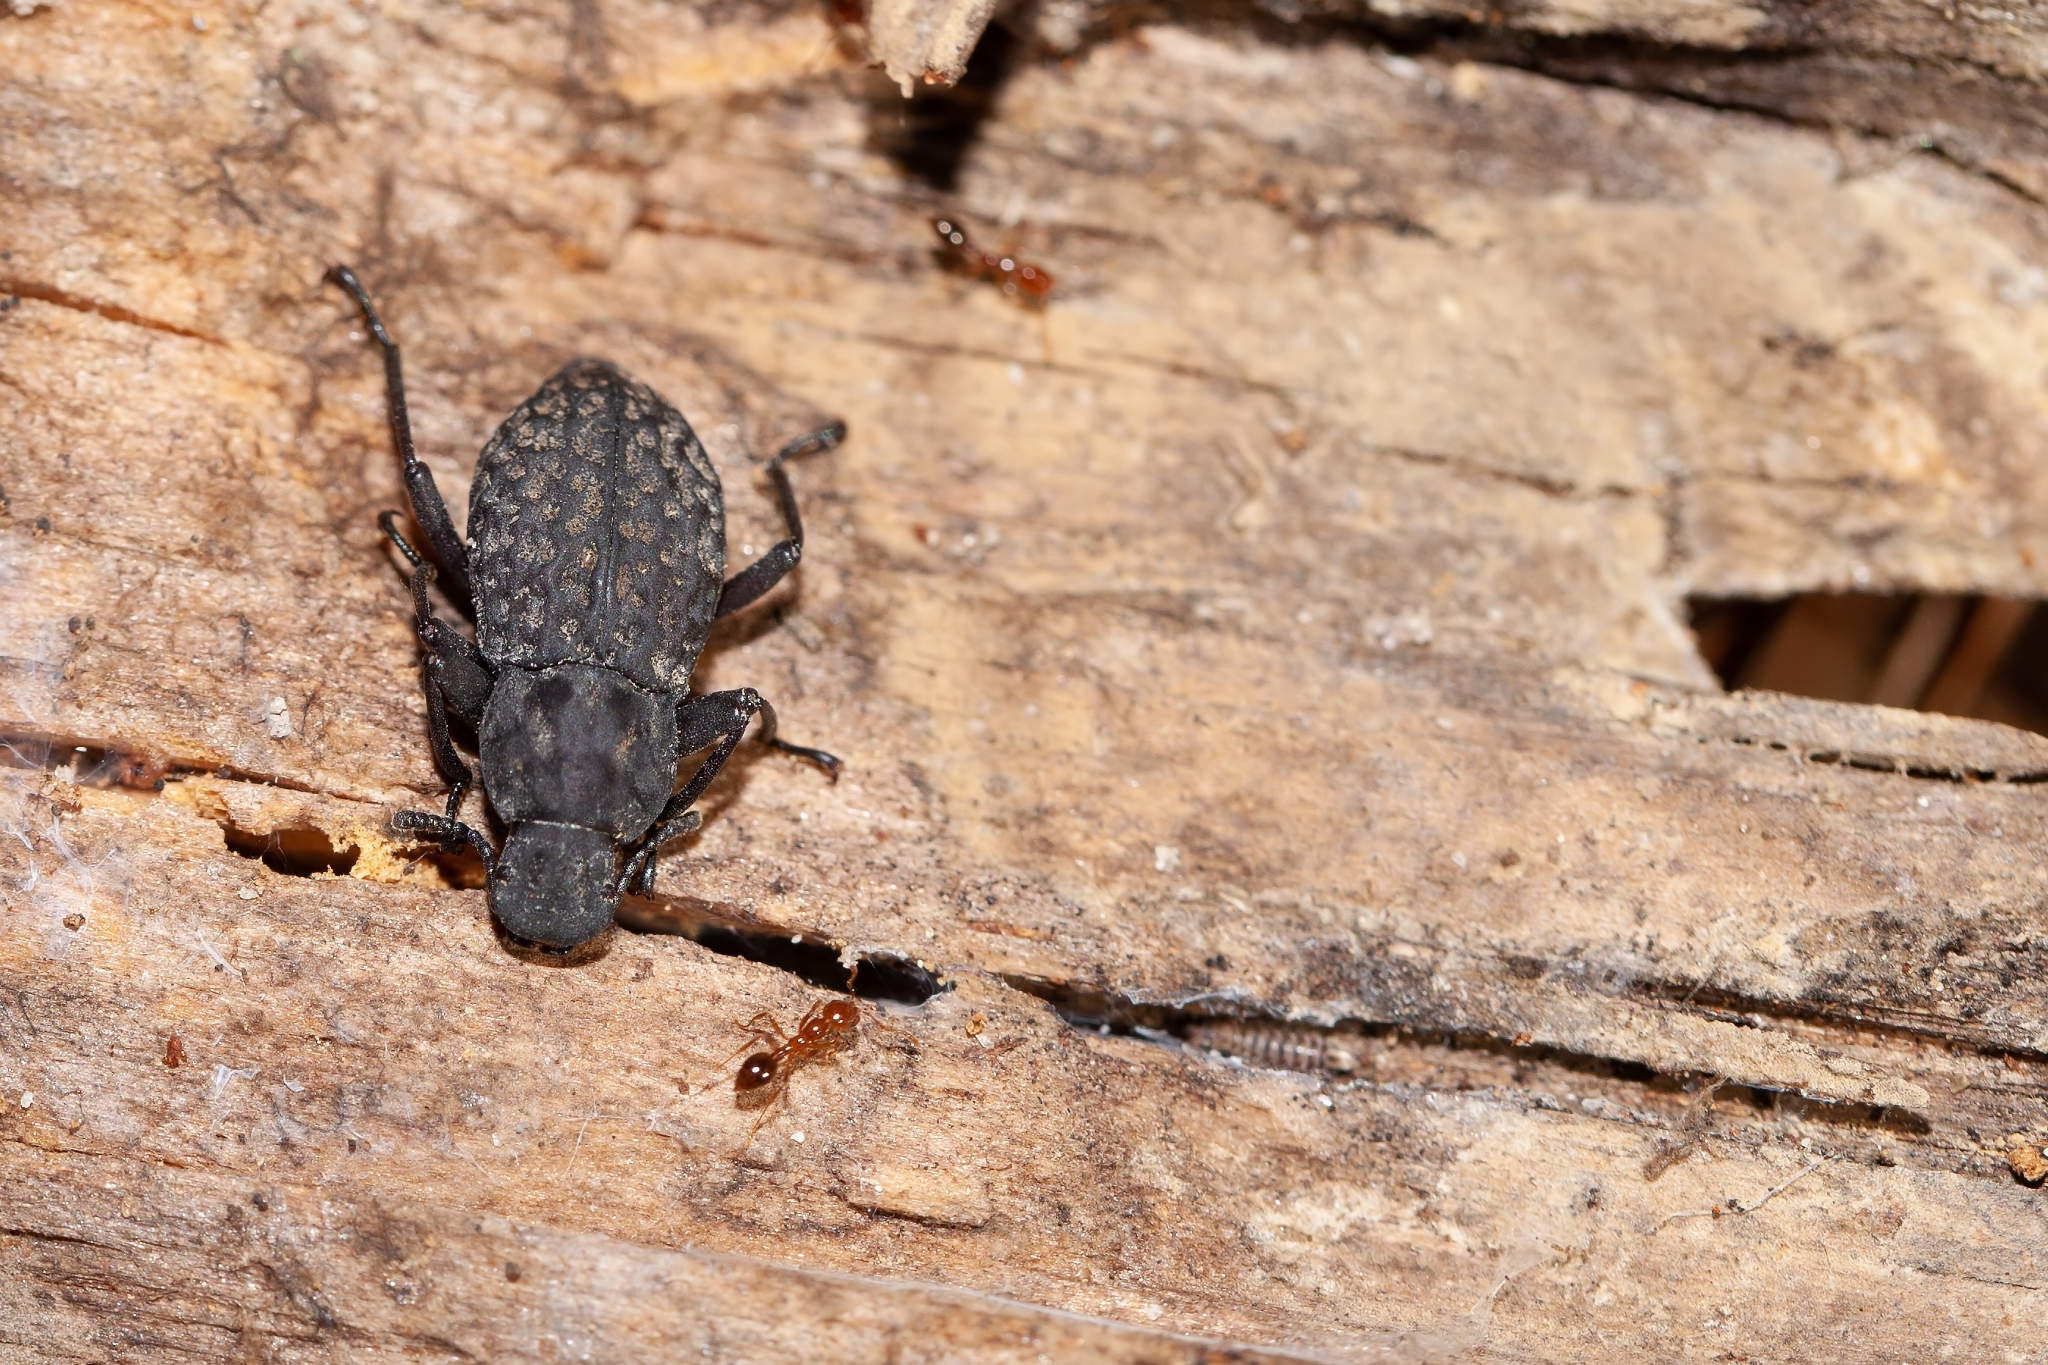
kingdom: Animalia
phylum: Arthropoda
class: Insecta
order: Coleoptera
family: Tenebrionidae
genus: Polypleurus
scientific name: Polypleurus perforatus
